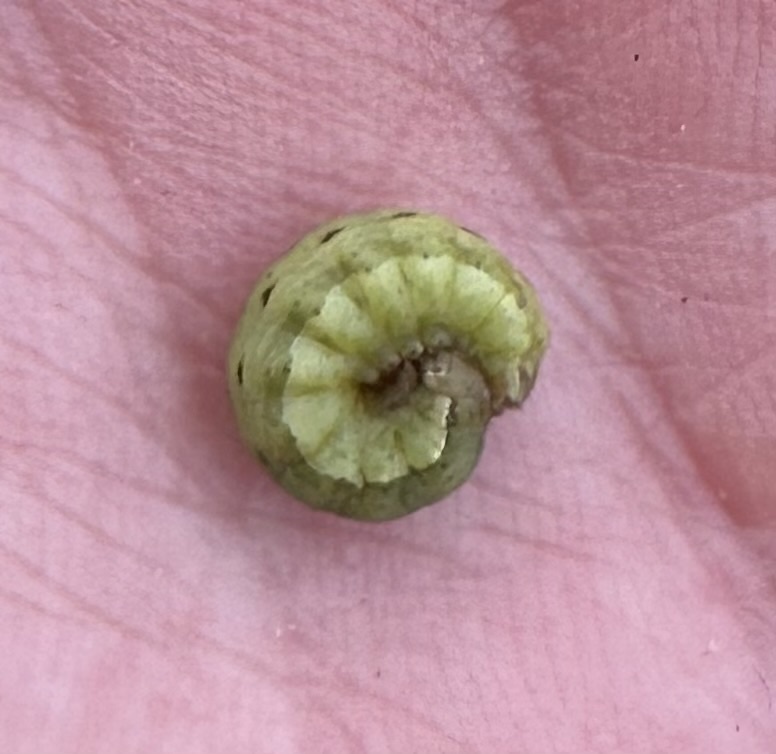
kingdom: Animalia
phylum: Arthropoda
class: Insecta
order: Lepidoptera
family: Noctuidae
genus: Noctua
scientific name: Noctua pronuba
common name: Large yellow underwing
